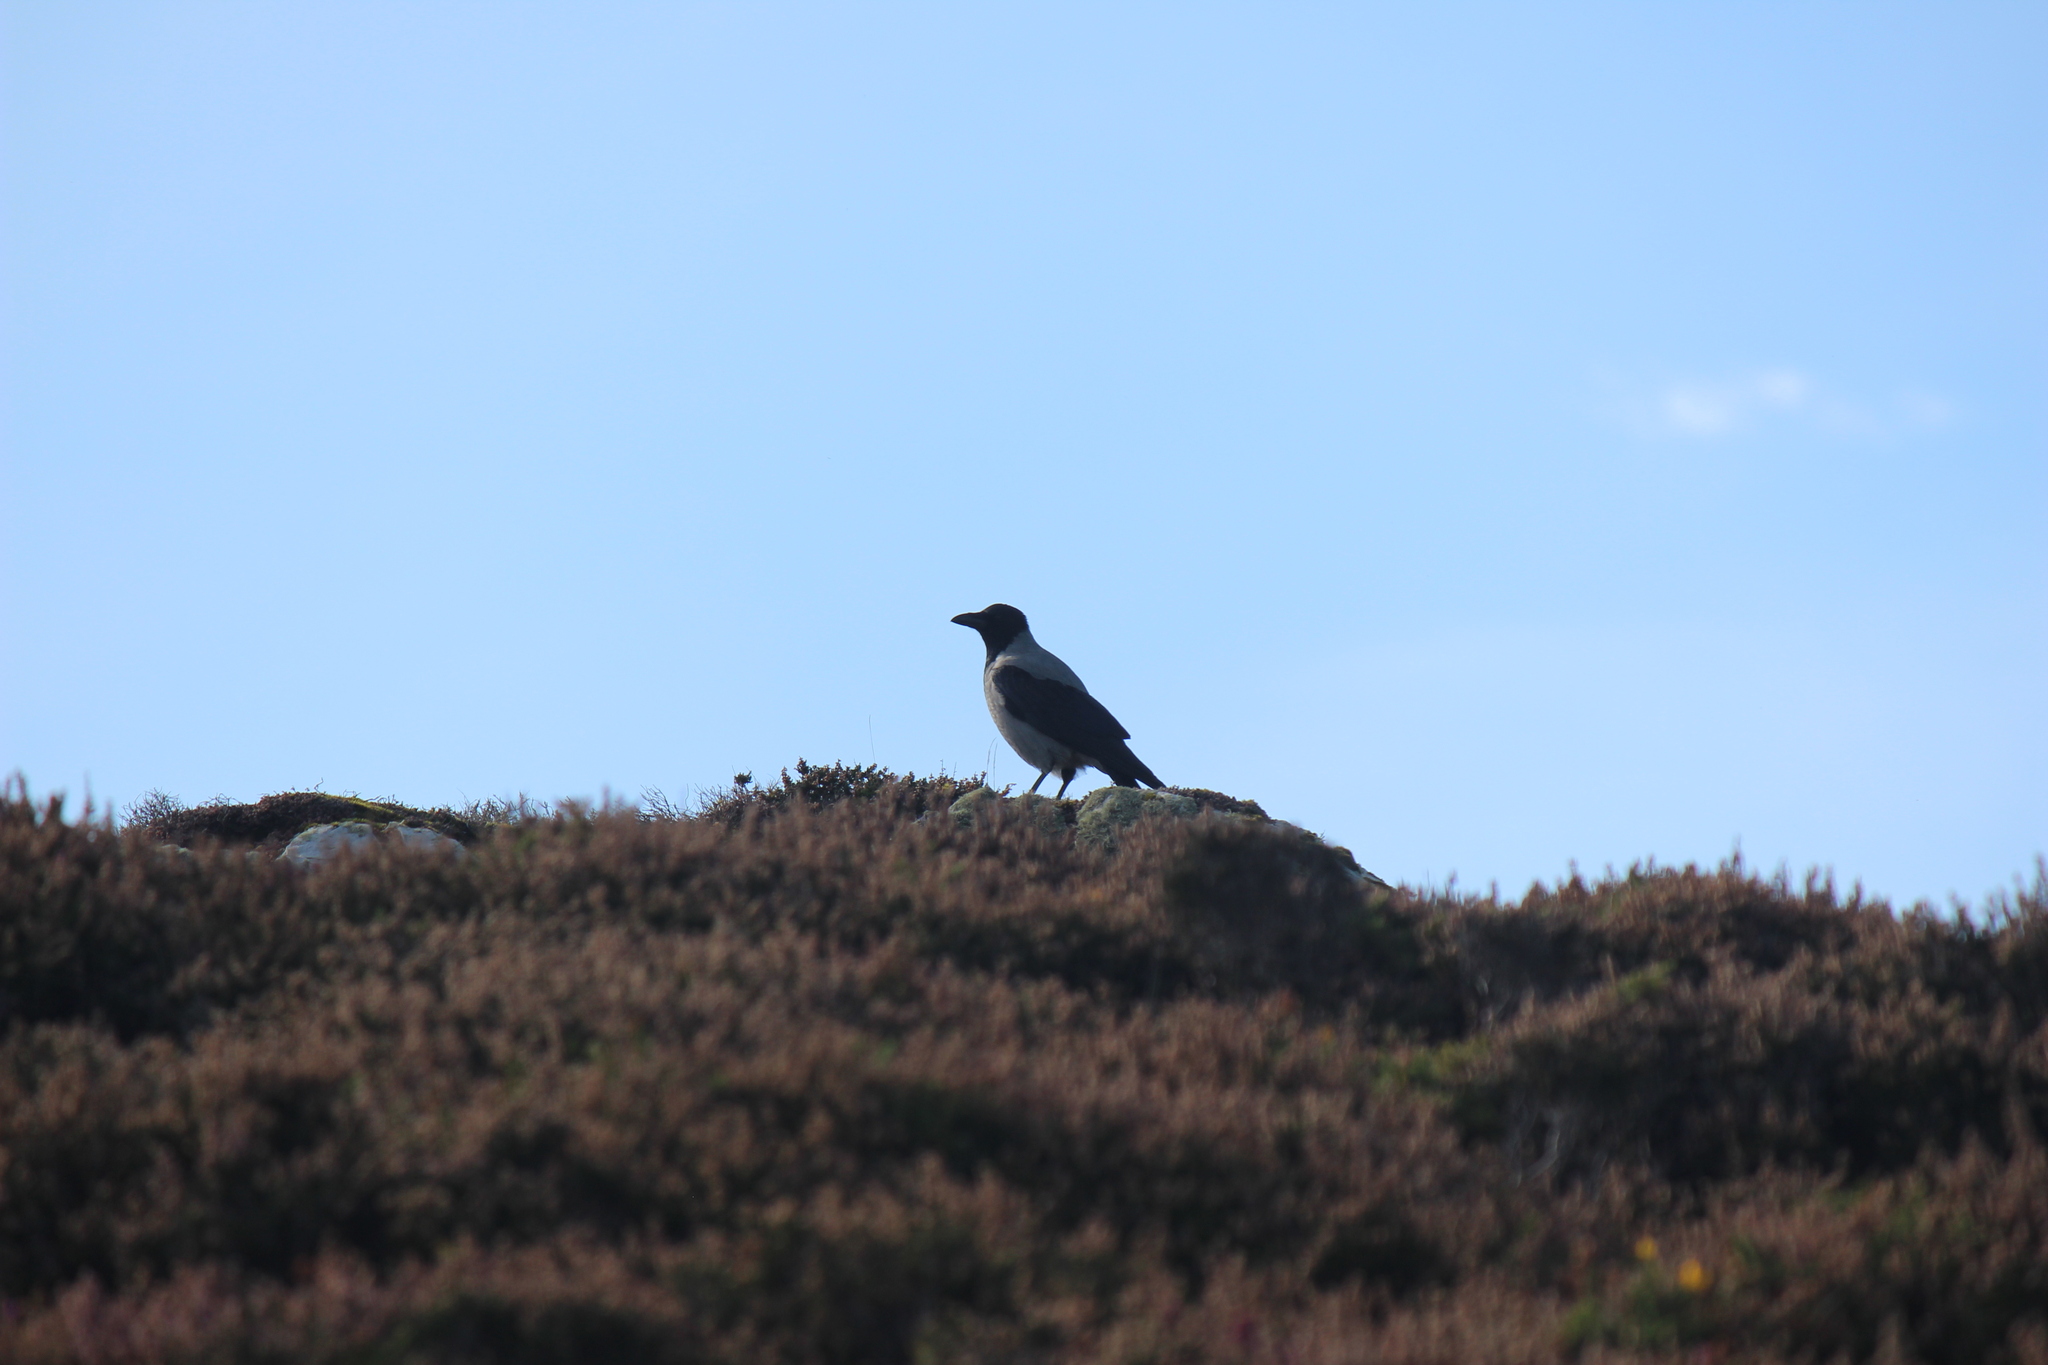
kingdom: Animalia
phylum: Chordata
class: Aves
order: Passeriformes
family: Corvidae
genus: Corvus
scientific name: Corvus cornix
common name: Hooded crow
